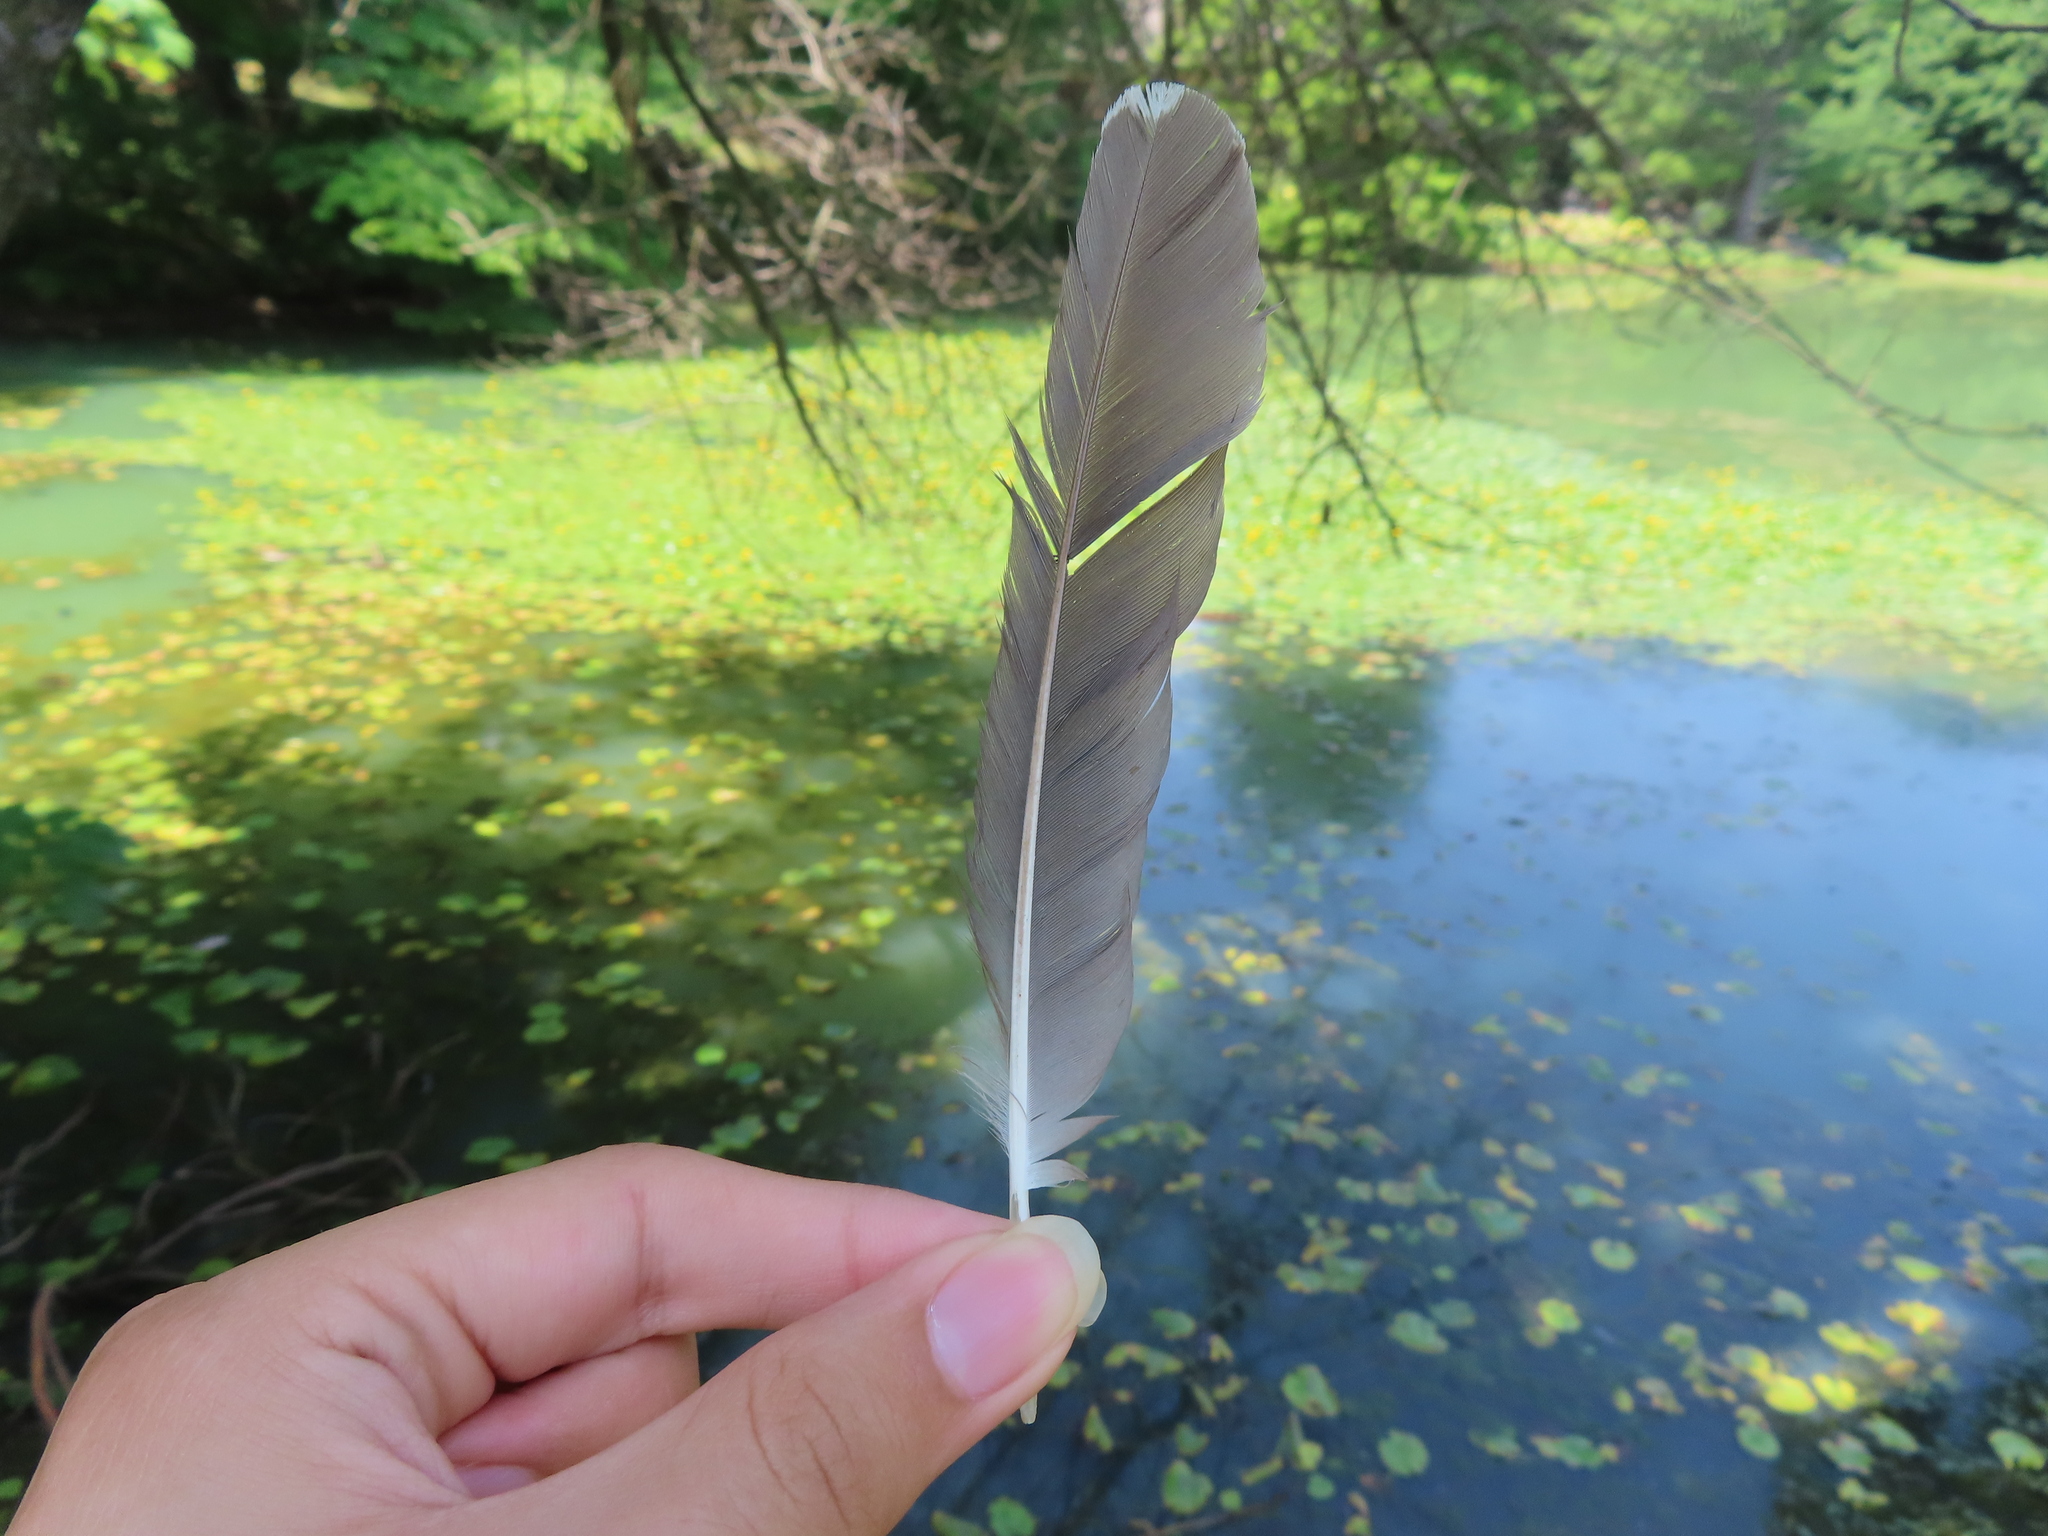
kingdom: Animalia
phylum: Chordata
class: Aves
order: Pelecaniformes
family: Ardeidae
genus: Butorides
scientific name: Butorides virescens
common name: Green heron
